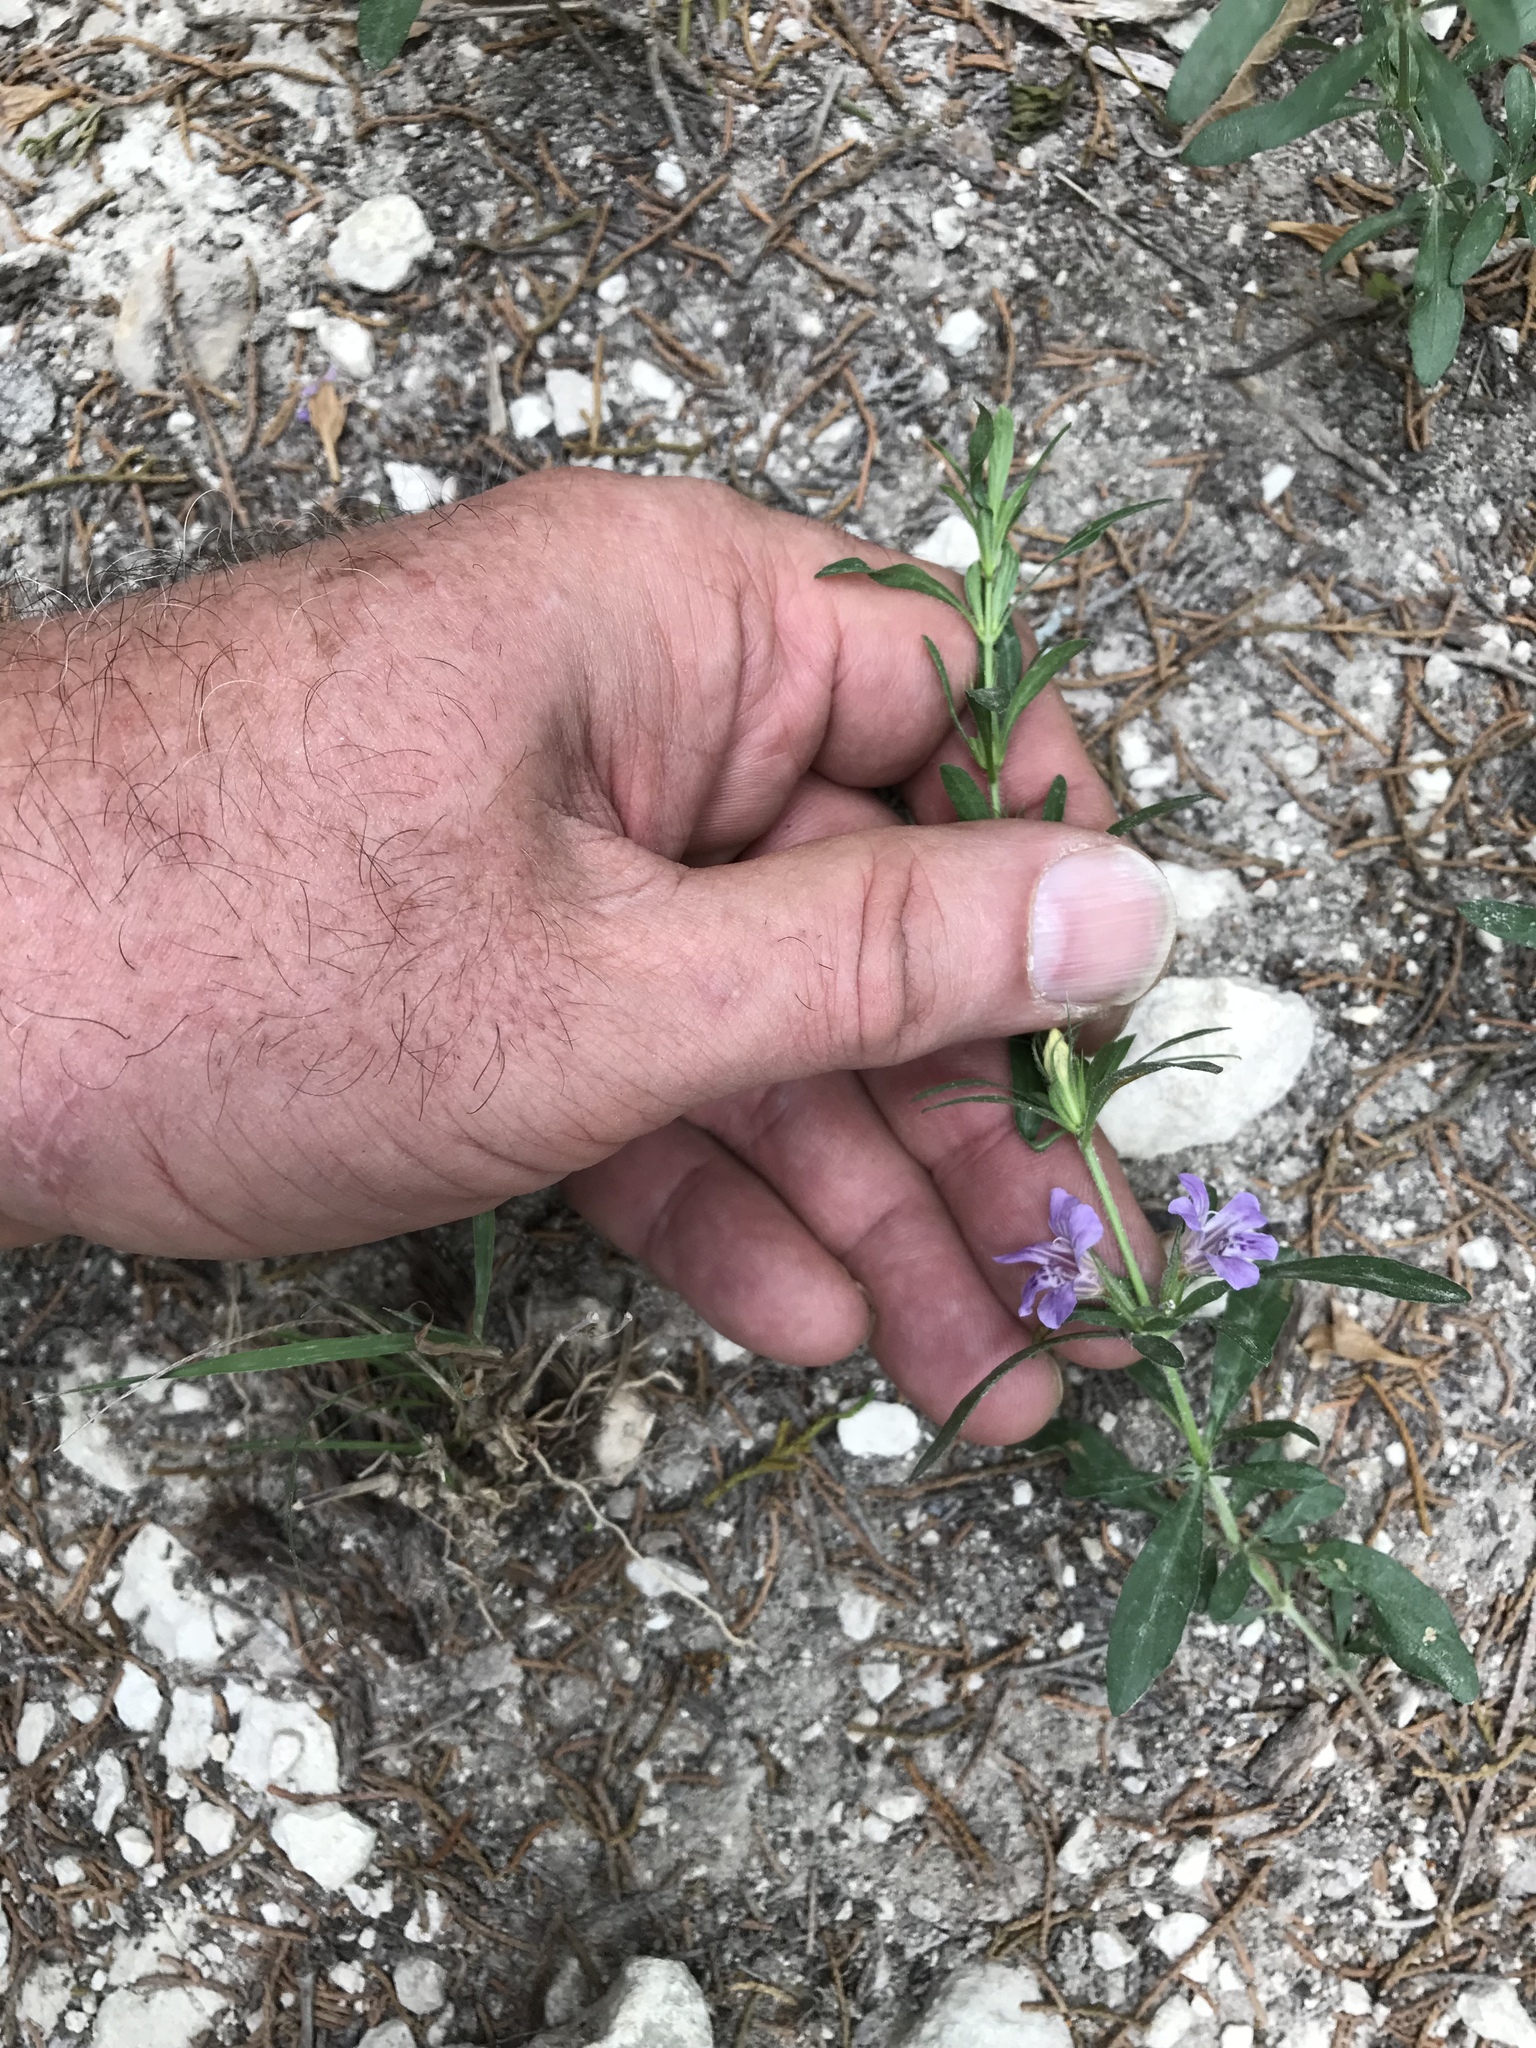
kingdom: Plantae
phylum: Tracheophyta
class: Magnoliopsida
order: Lamiales
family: Acanthaceae
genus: Dyschoriste
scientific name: Dyschoriste linearis
